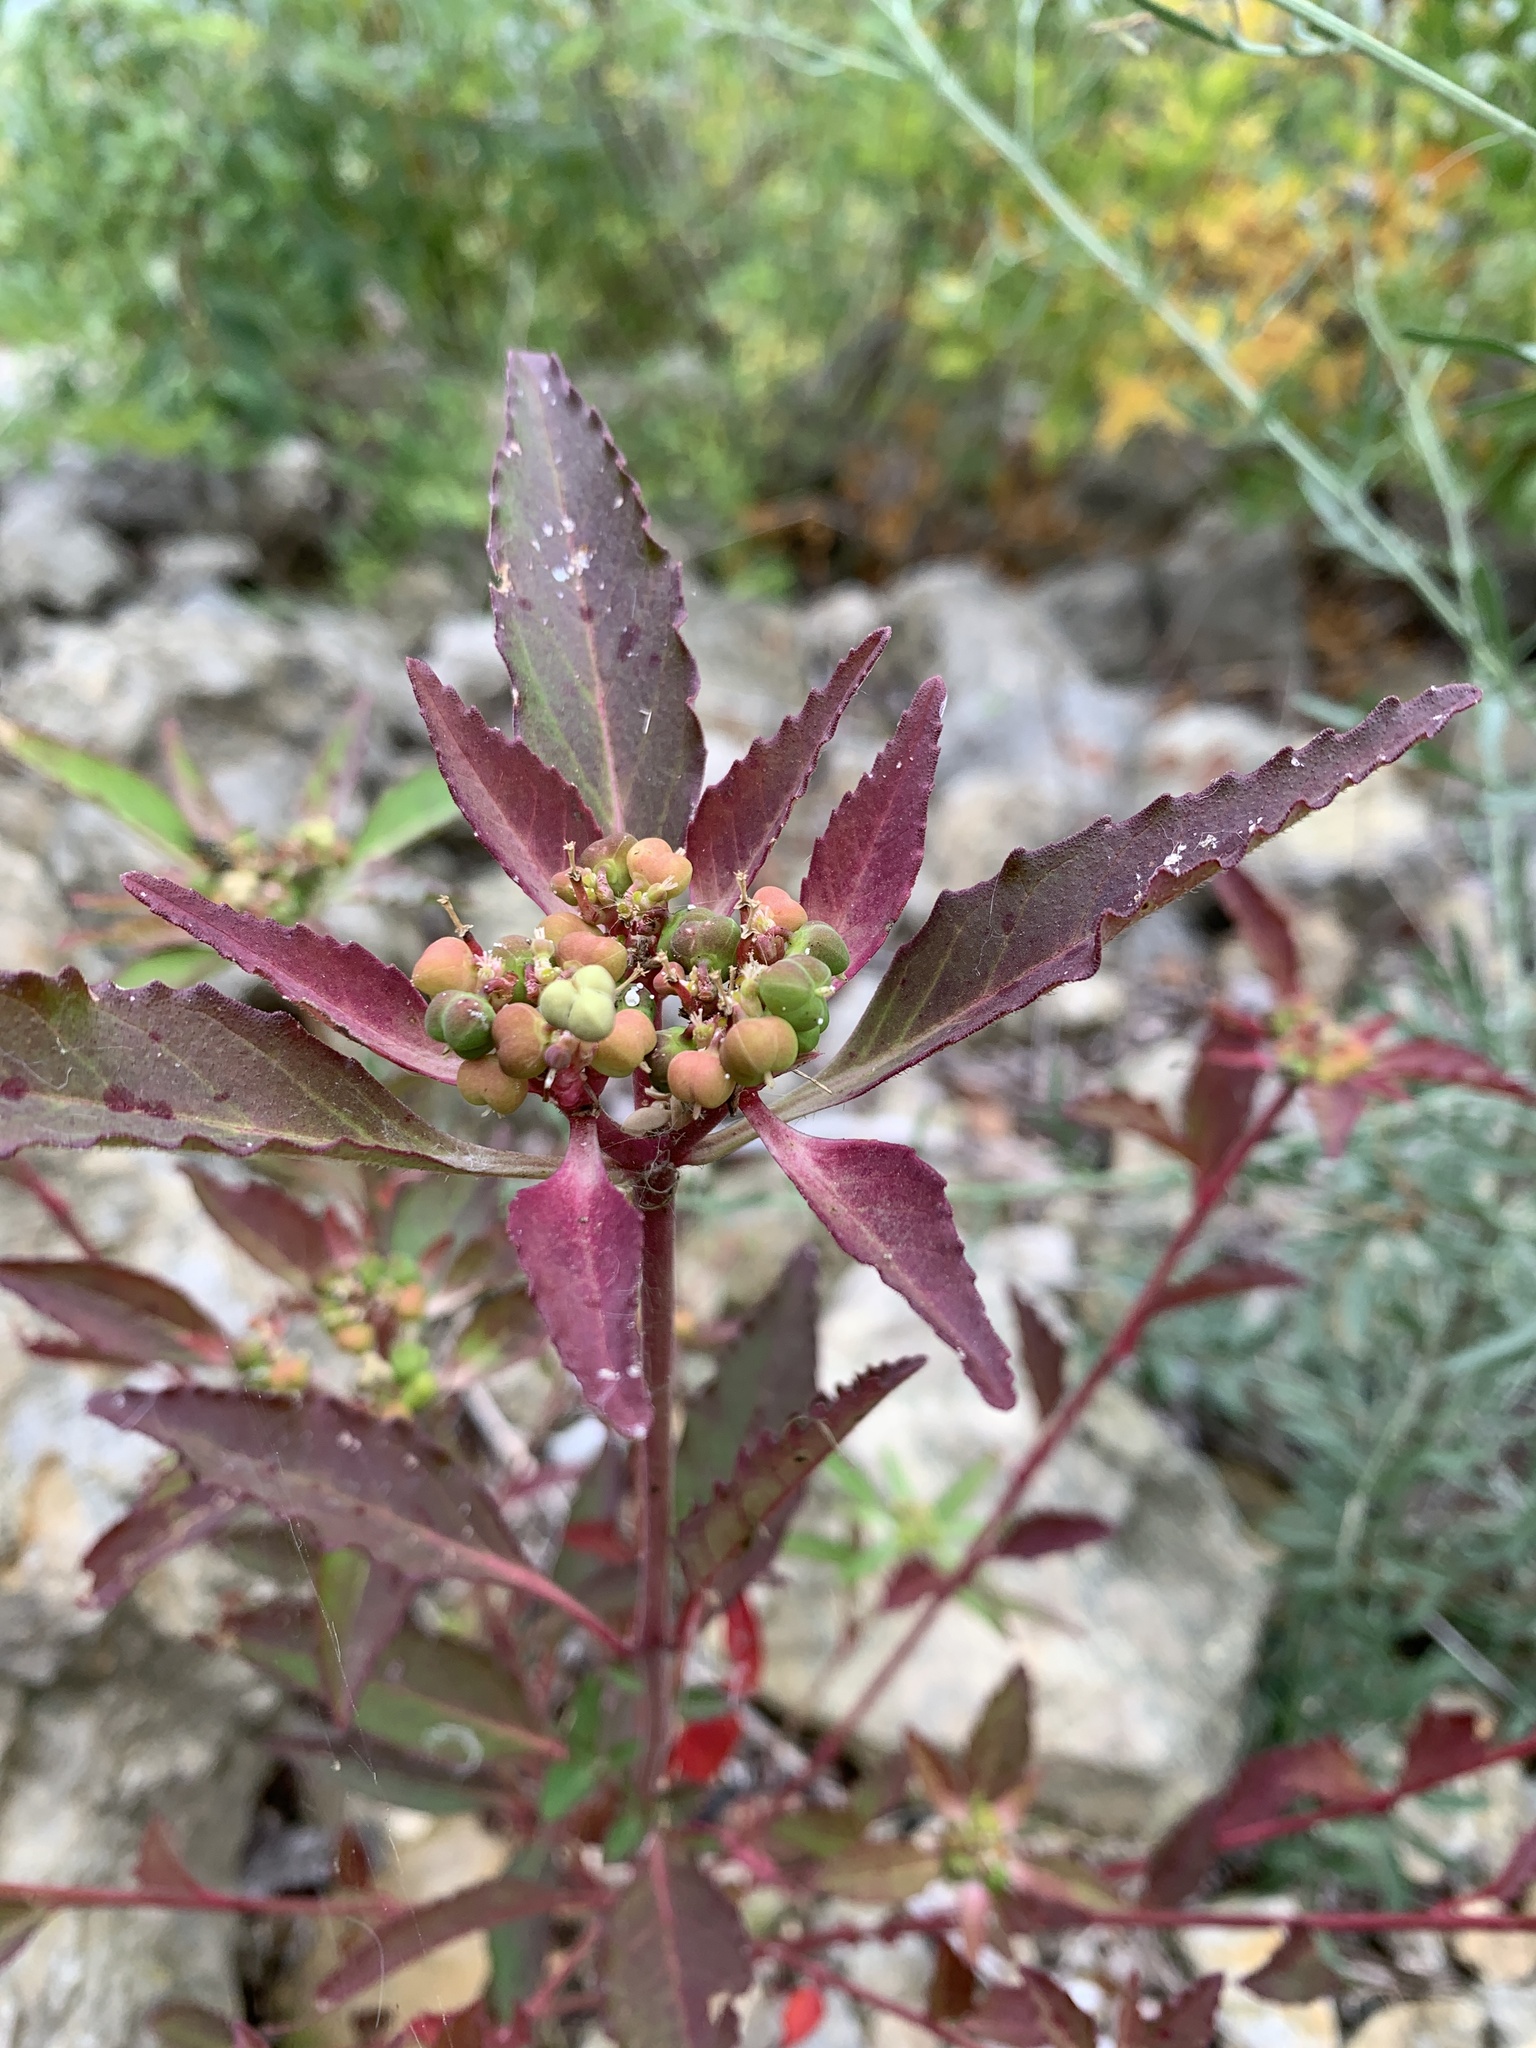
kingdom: Plantae
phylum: Tracheophyta
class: Magnoliopsida
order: Malpighiales
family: Euphorbiaceae
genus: Euphorbia
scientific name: Euphorbia dentata
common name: Dentate spurge
